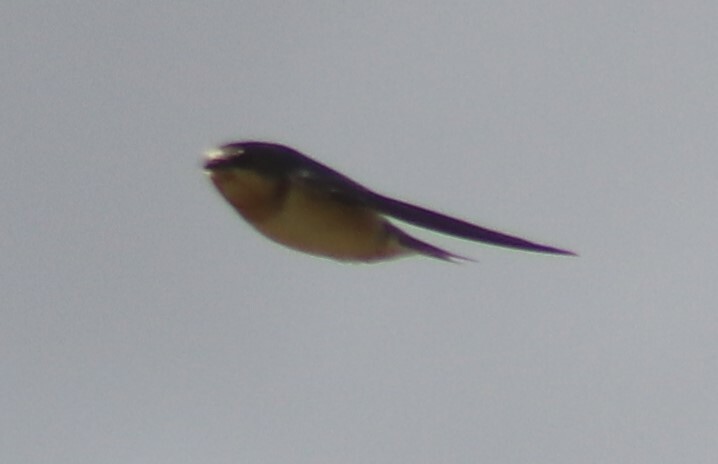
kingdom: Animalia
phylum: Chordata
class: Aves
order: Passeriformes
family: Hirundinidae
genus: Hirundo
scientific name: Hirundo rustica
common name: Barn swallow
